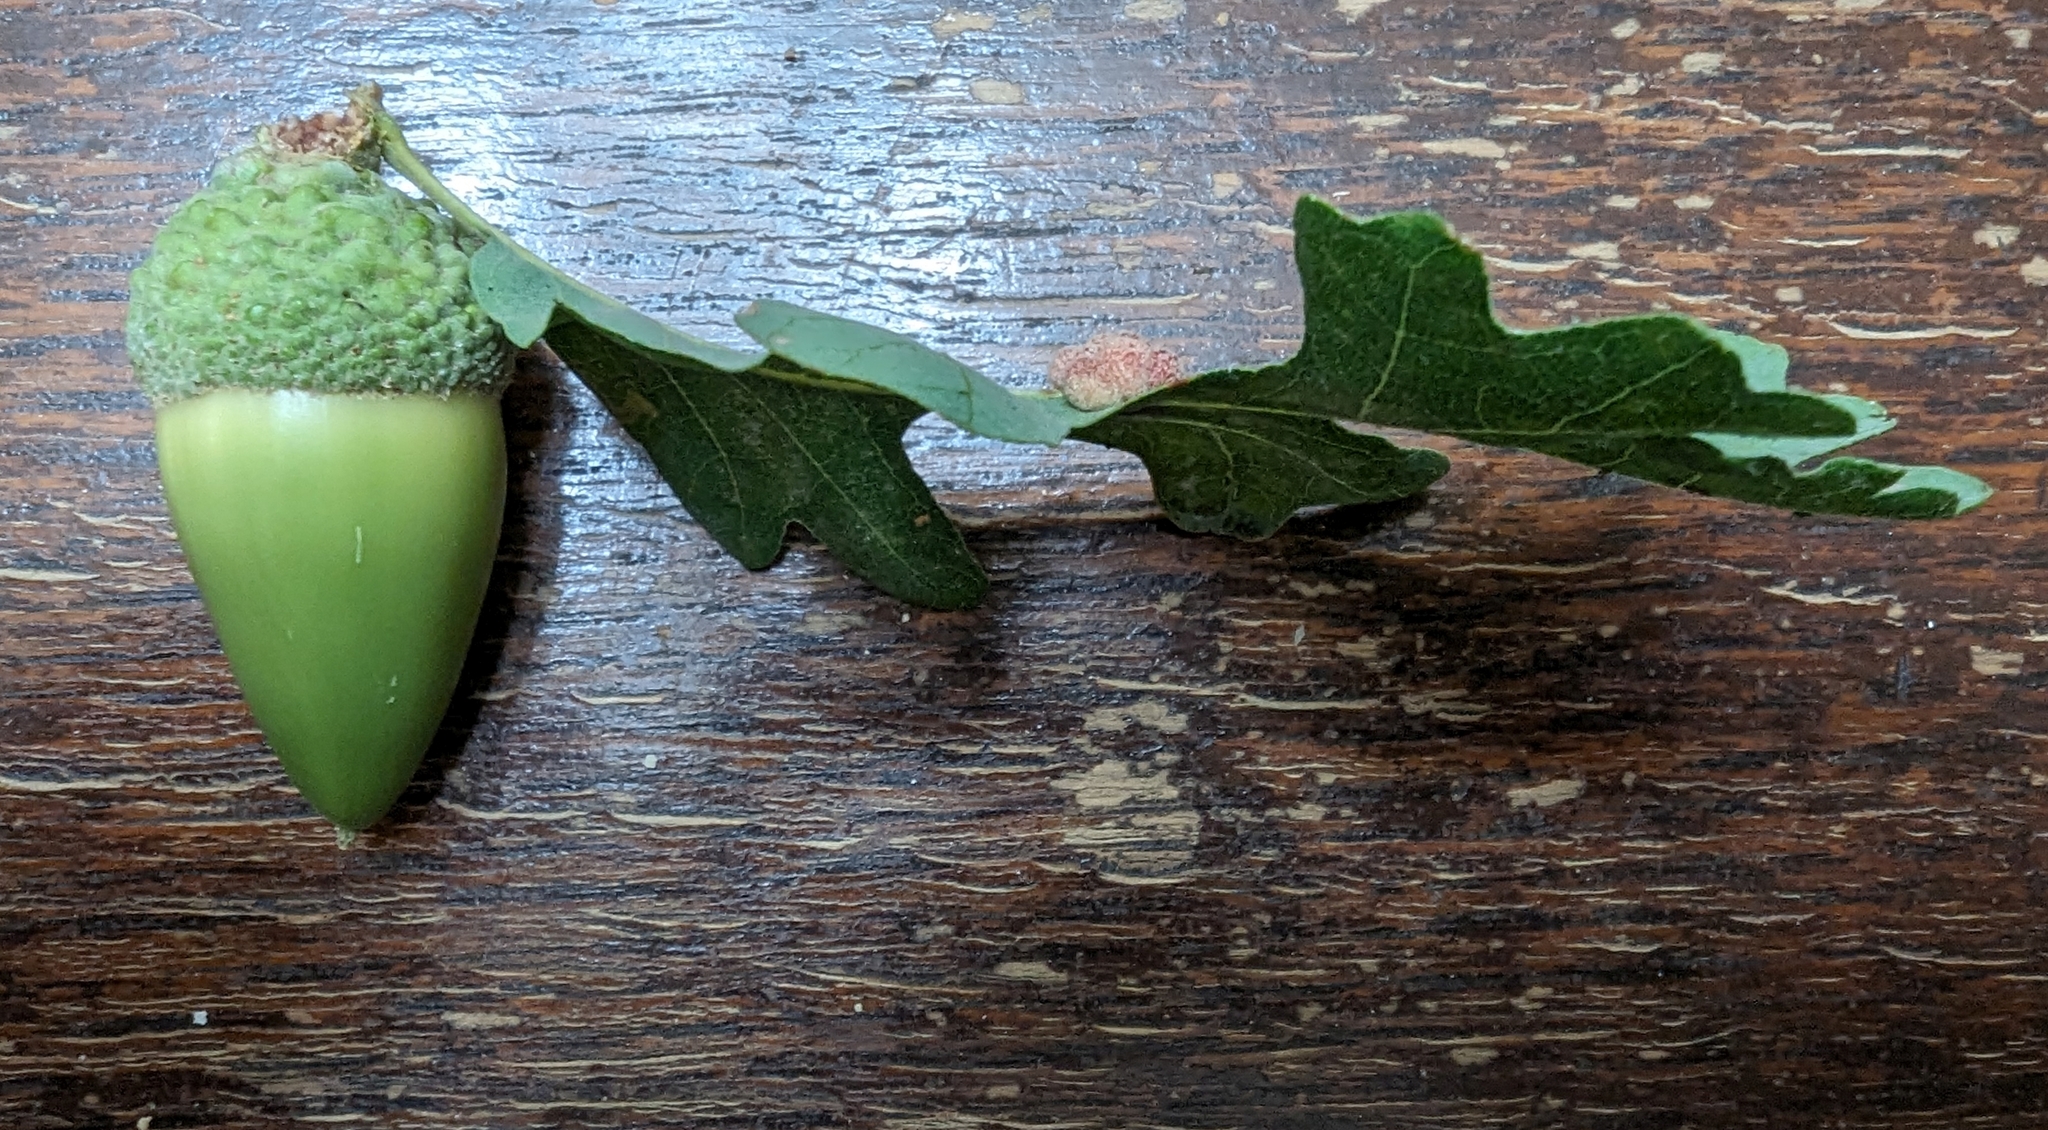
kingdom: Animalia
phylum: Arthropoda
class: Insecta
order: Hymenoptera
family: Cynipidae
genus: Andricus
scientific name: Andricus
